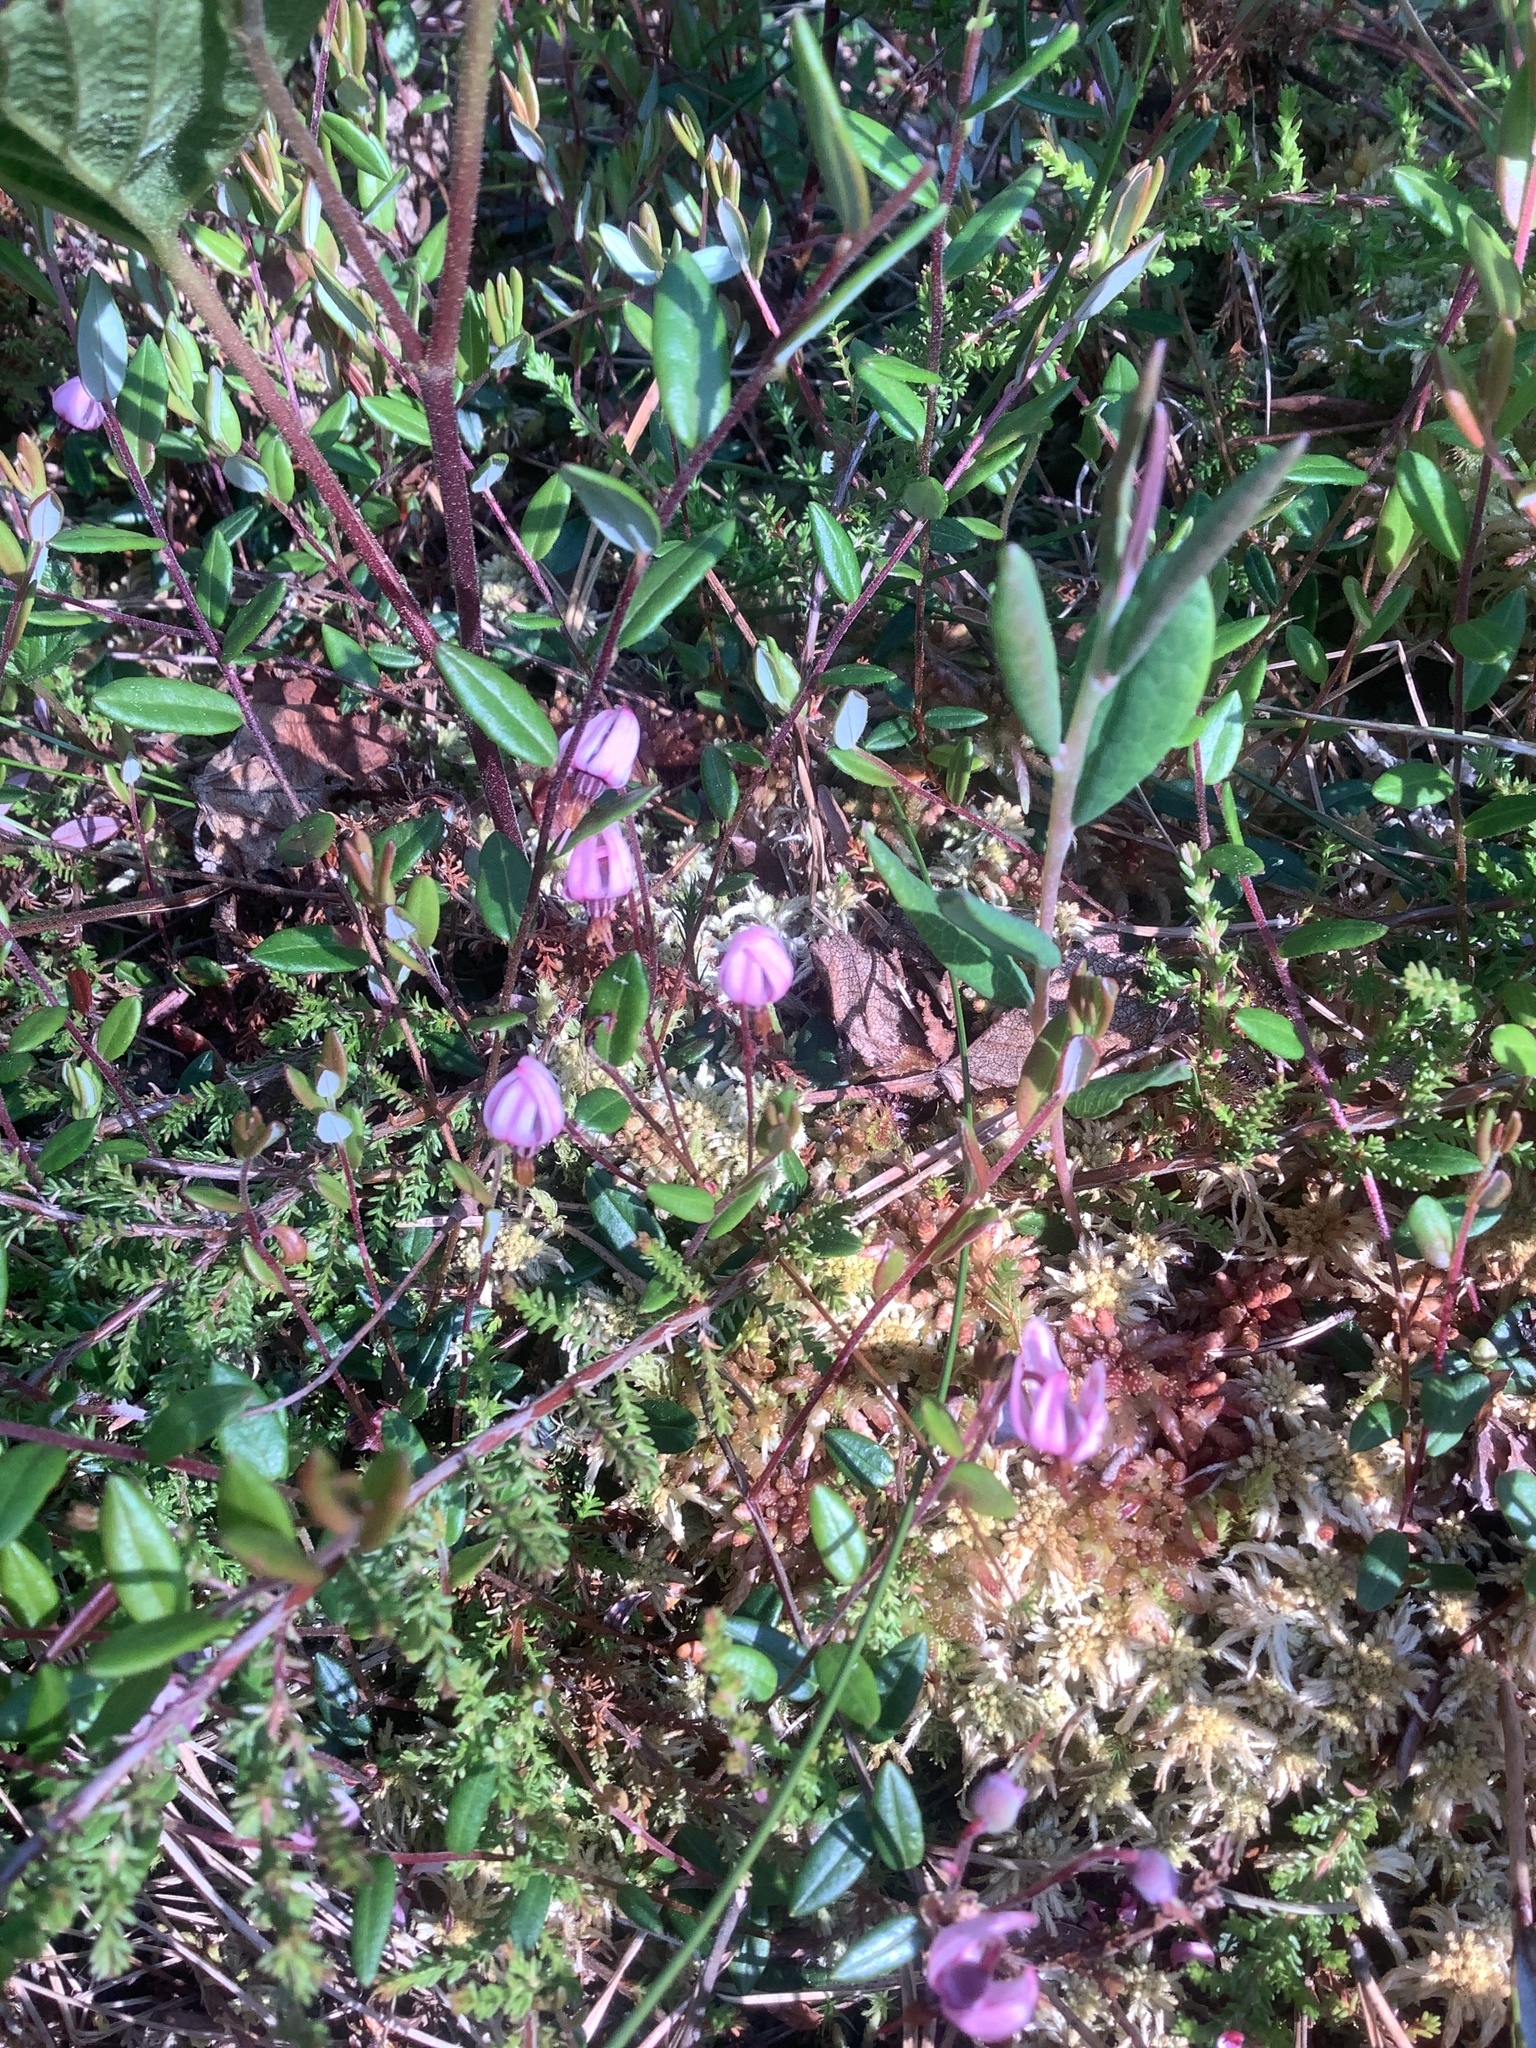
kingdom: Plantae
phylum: Tracheophyta
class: Magnoliopsida
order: Ericales
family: Ericaceae
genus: Vaccinium
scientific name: Vaccinium oxycoccos
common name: Cranberry
